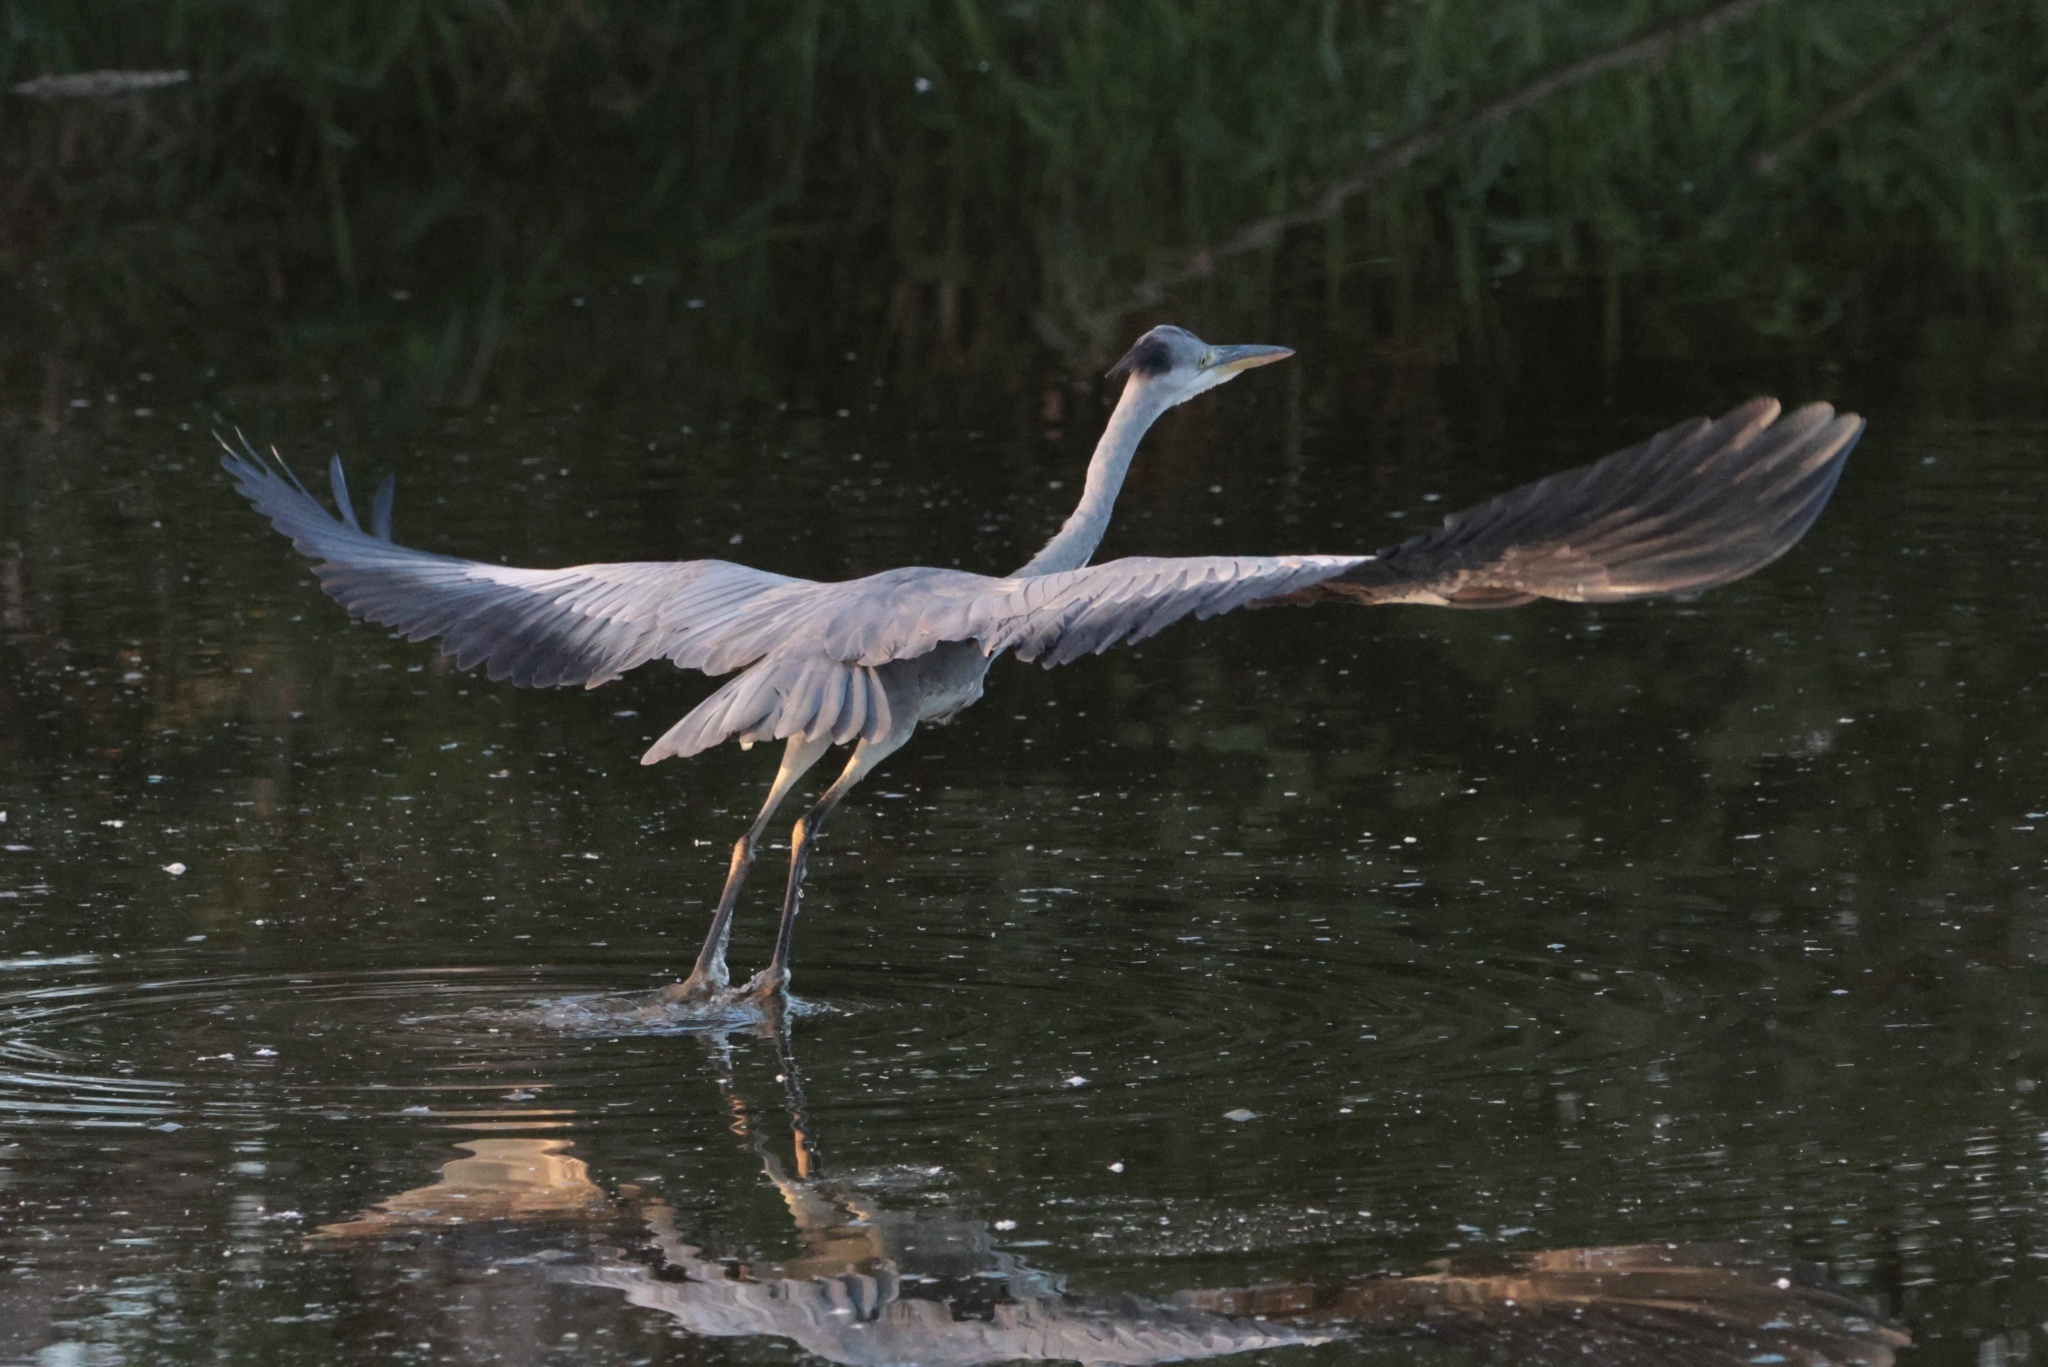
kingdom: Animalia
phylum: Chordata
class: Aves
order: Pelecaniformes
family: Ardeidae
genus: Ardea
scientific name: Ardea cinerea
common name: Grey heron
